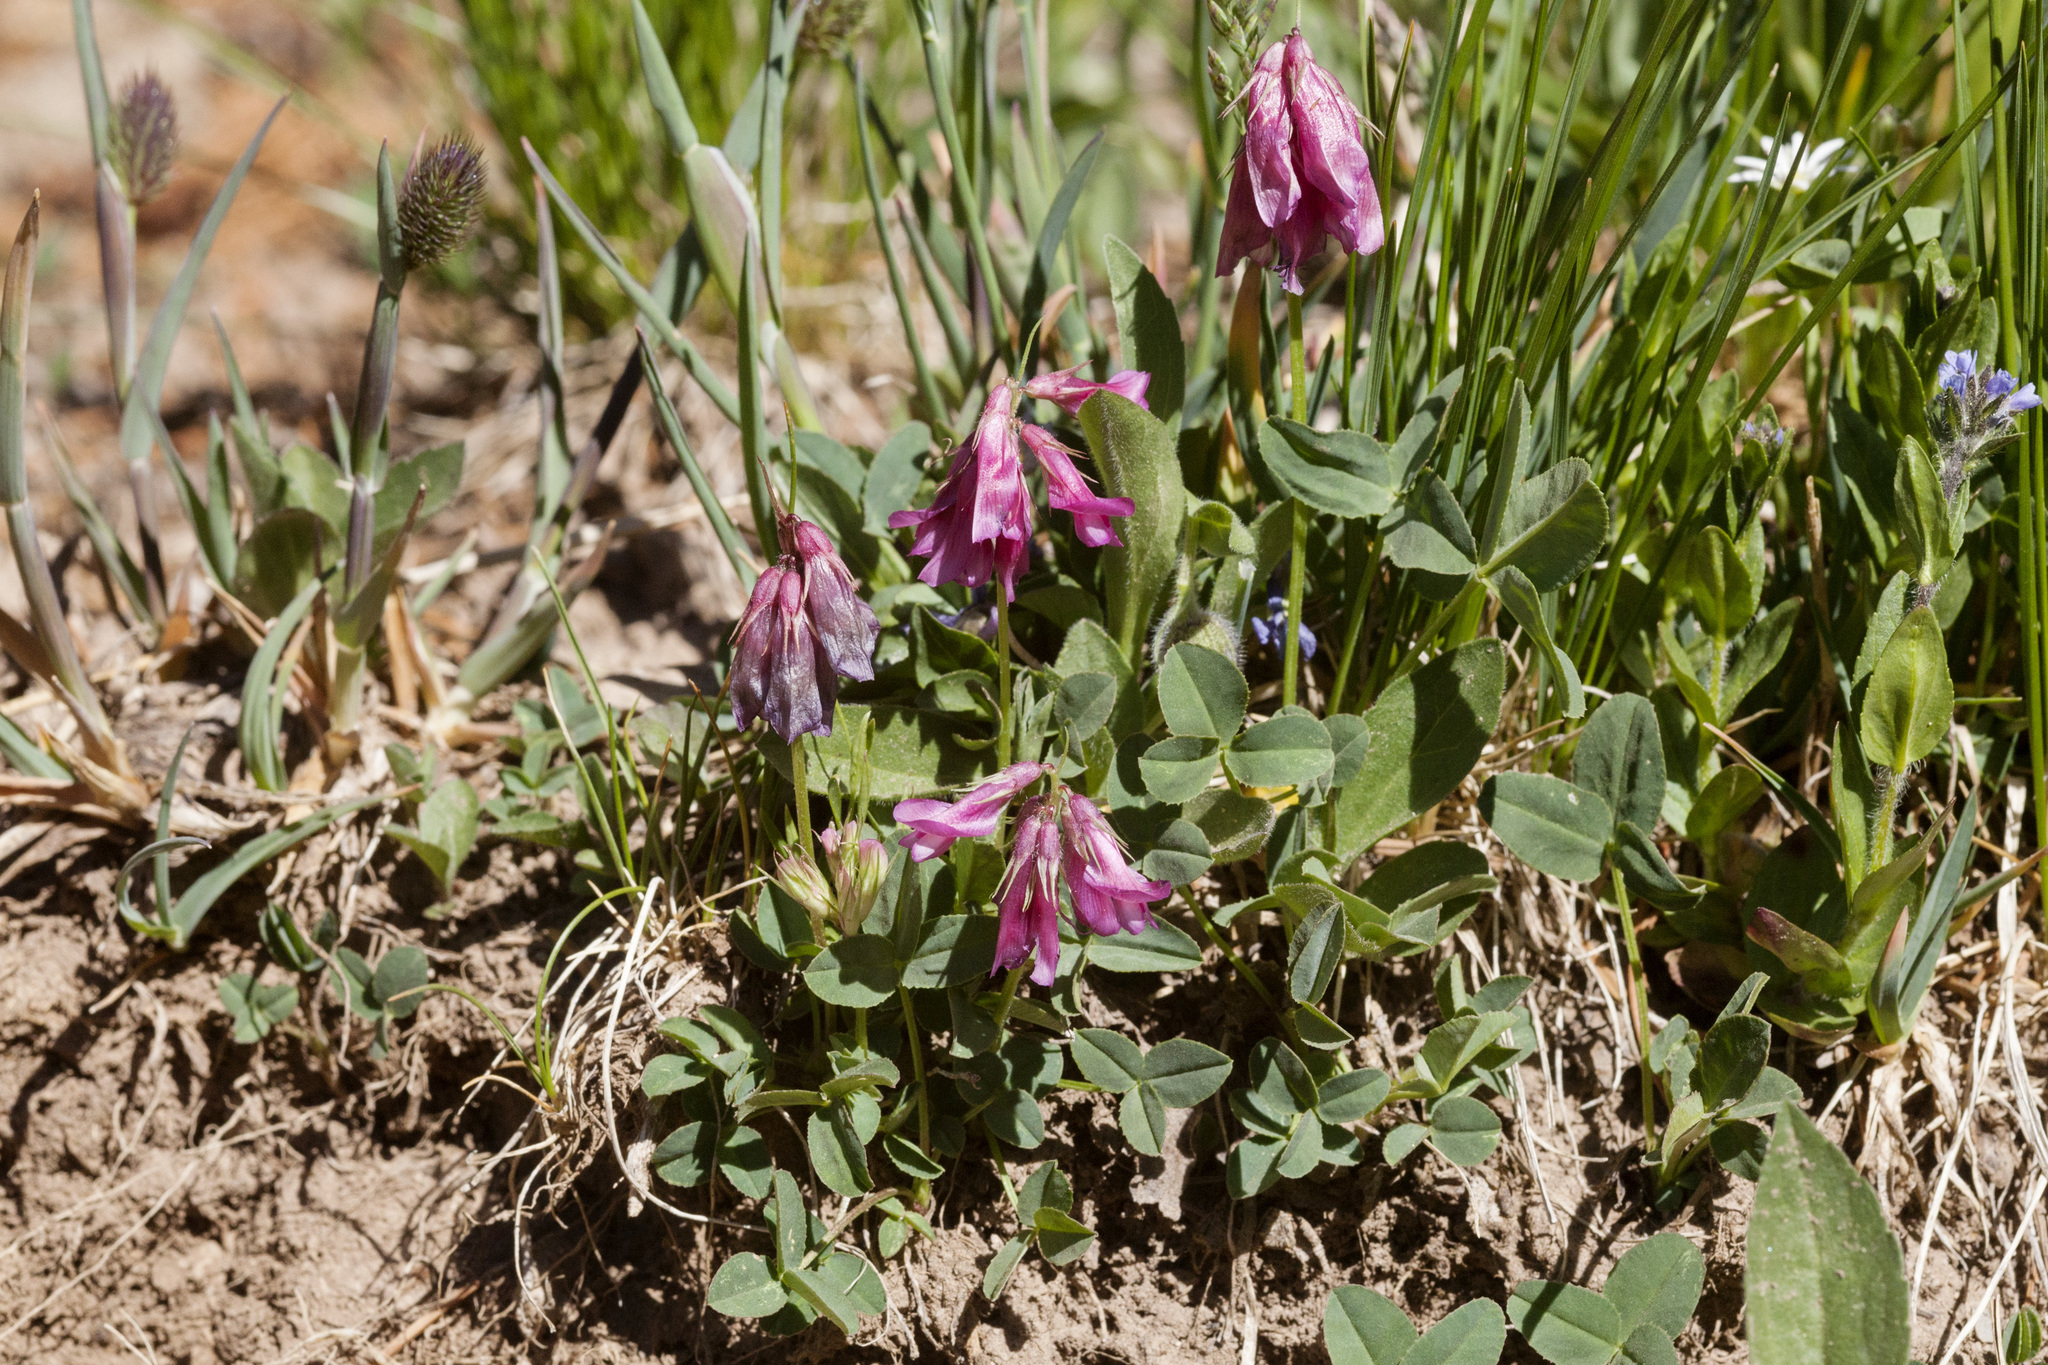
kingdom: Plantae
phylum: Tracheophyta
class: Magnoliopsida
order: Fabales
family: Fabaceae
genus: Trifolium
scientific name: Trifolium brandegeei
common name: Brandegee's clover
